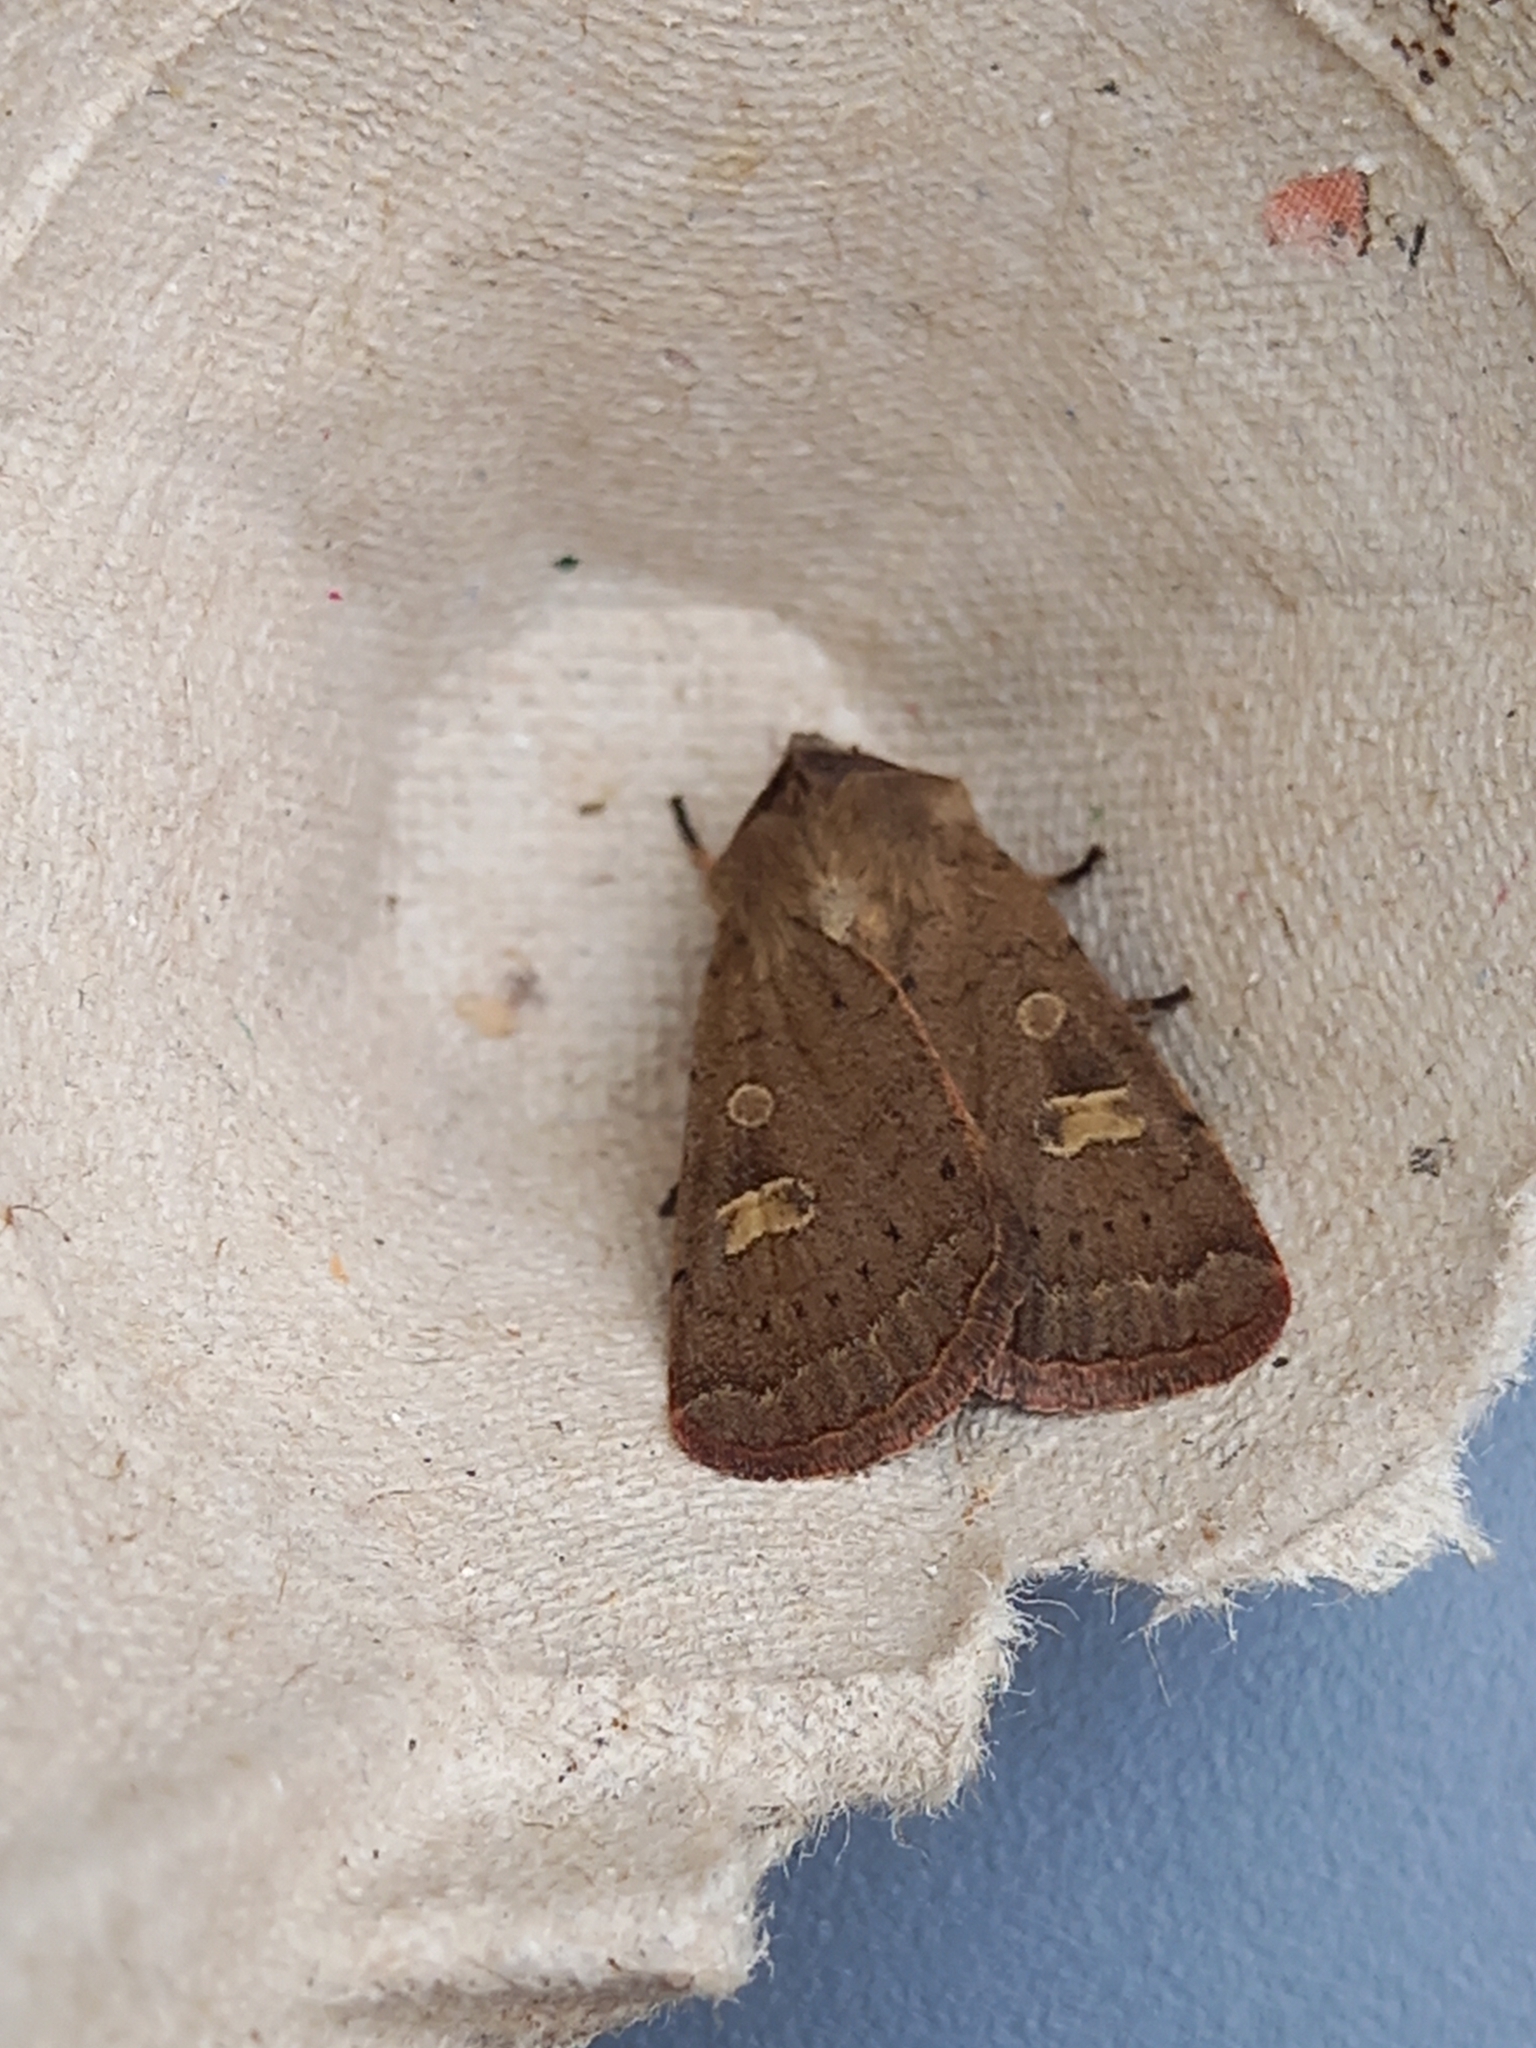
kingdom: Animalia
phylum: Arthropoda
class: Insecta
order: Lepidoptera
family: Noctuidae
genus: Xestia
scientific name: Xestia xanthographa
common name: Square-spot rustic
